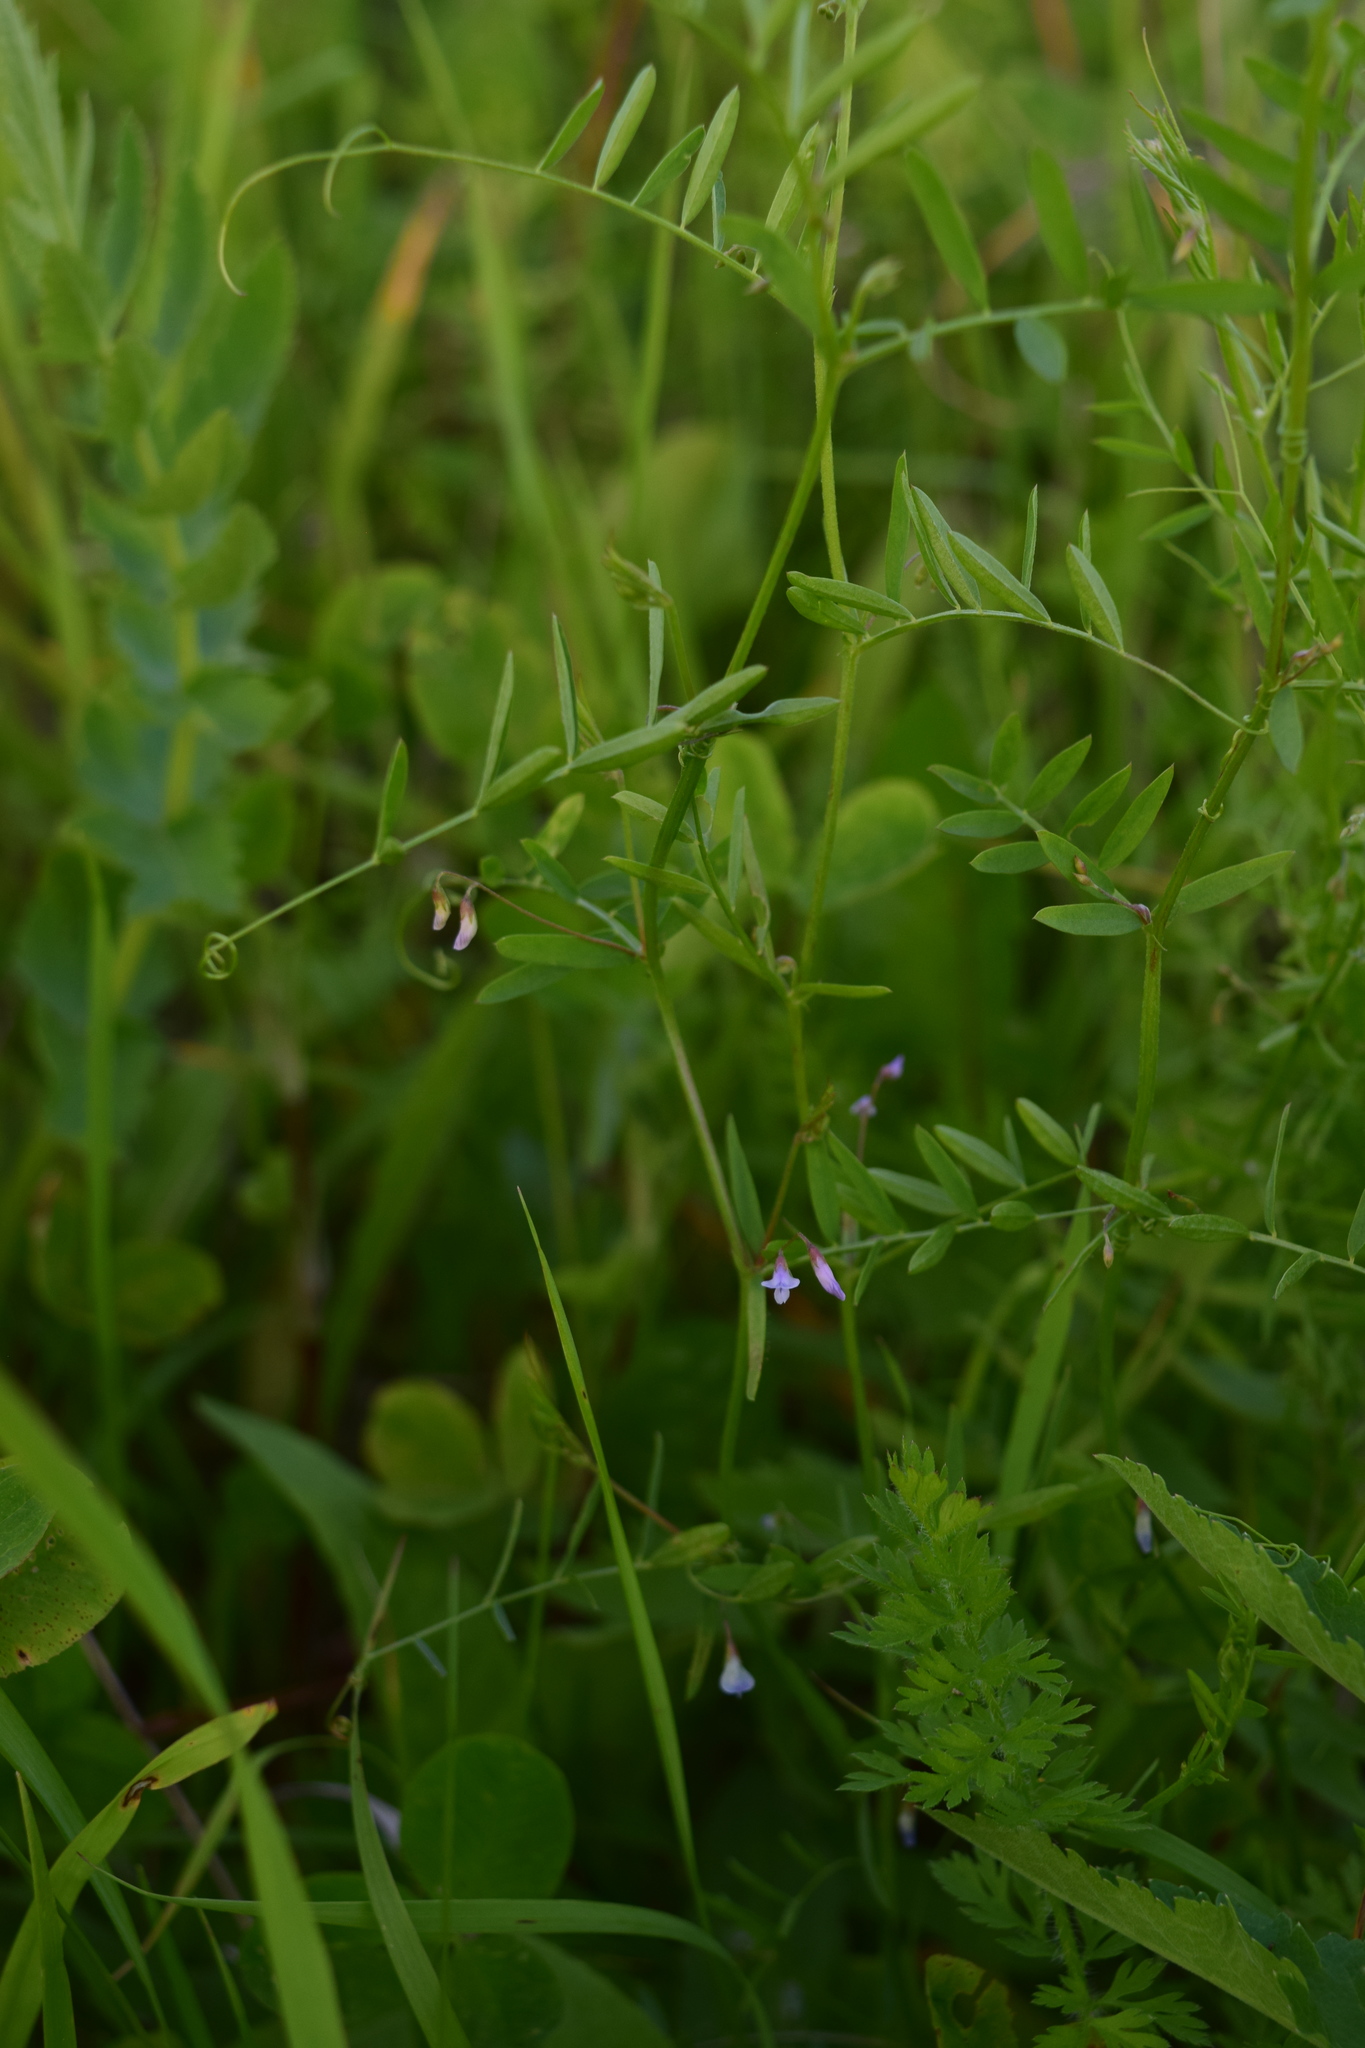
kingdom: Plantae
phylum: Tracheophyta
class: Magnoliopsida
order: Fabales
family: Fabaceae
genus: Vicia
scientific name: Vicia tetrasperma
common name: Smooth tare
